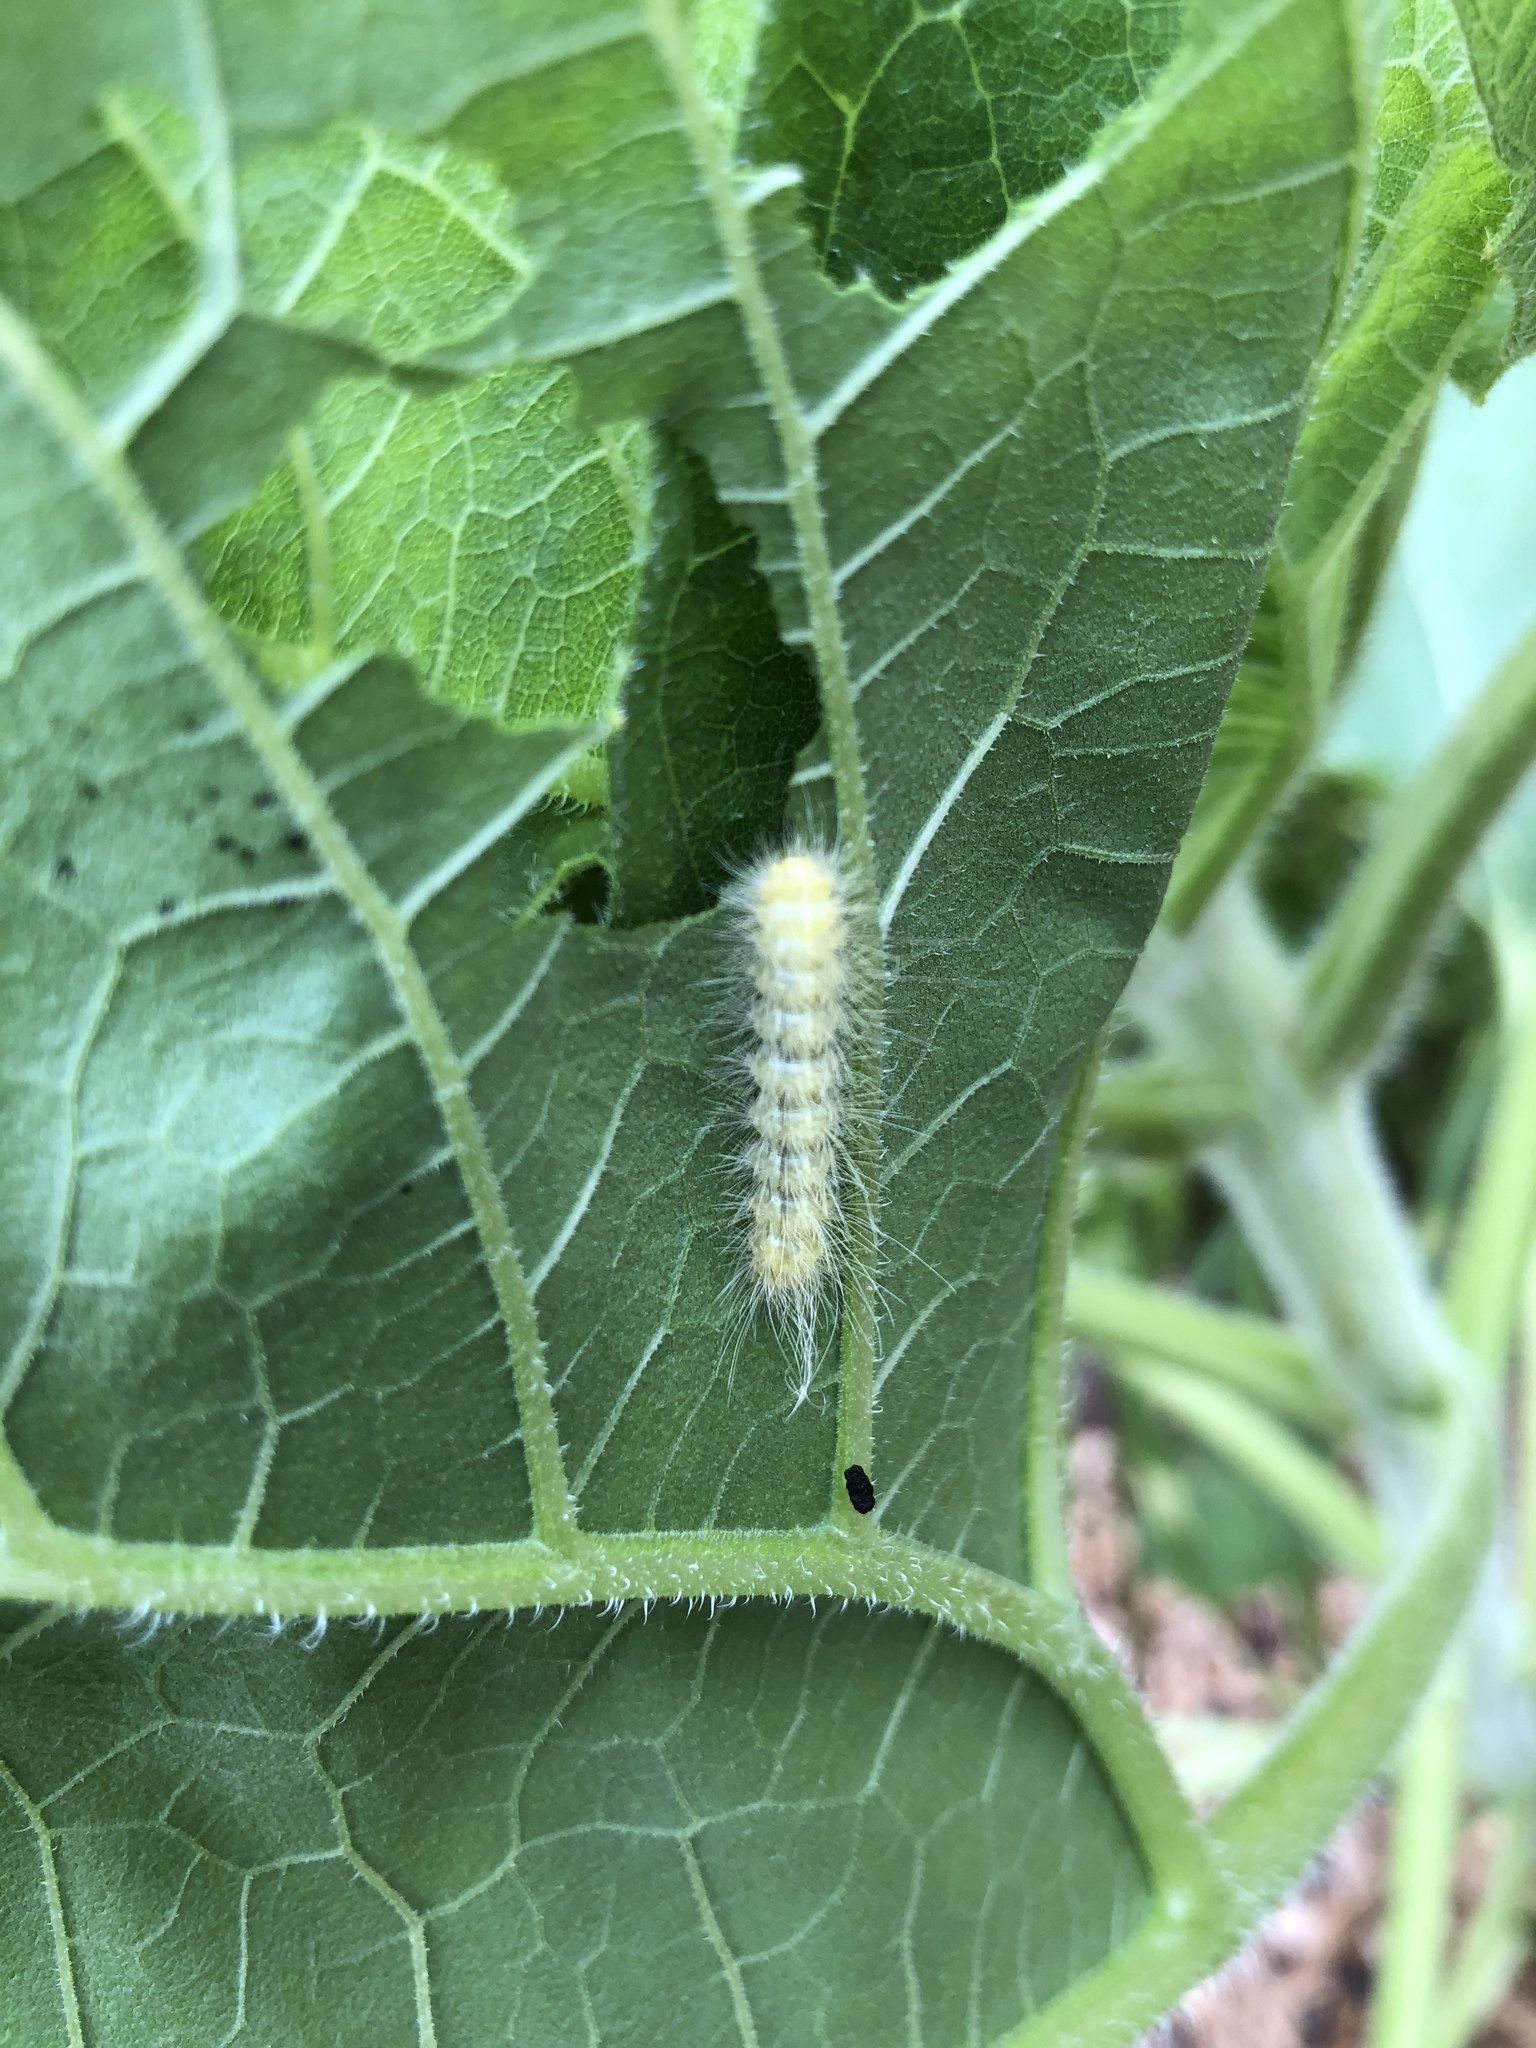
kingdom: Animalia
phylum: Arthropoda
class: Insecta
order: Lepidoptera
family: Erebidae
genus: Spilosoma
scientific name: Spilosoma virginica
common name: Virginia tiger moth
